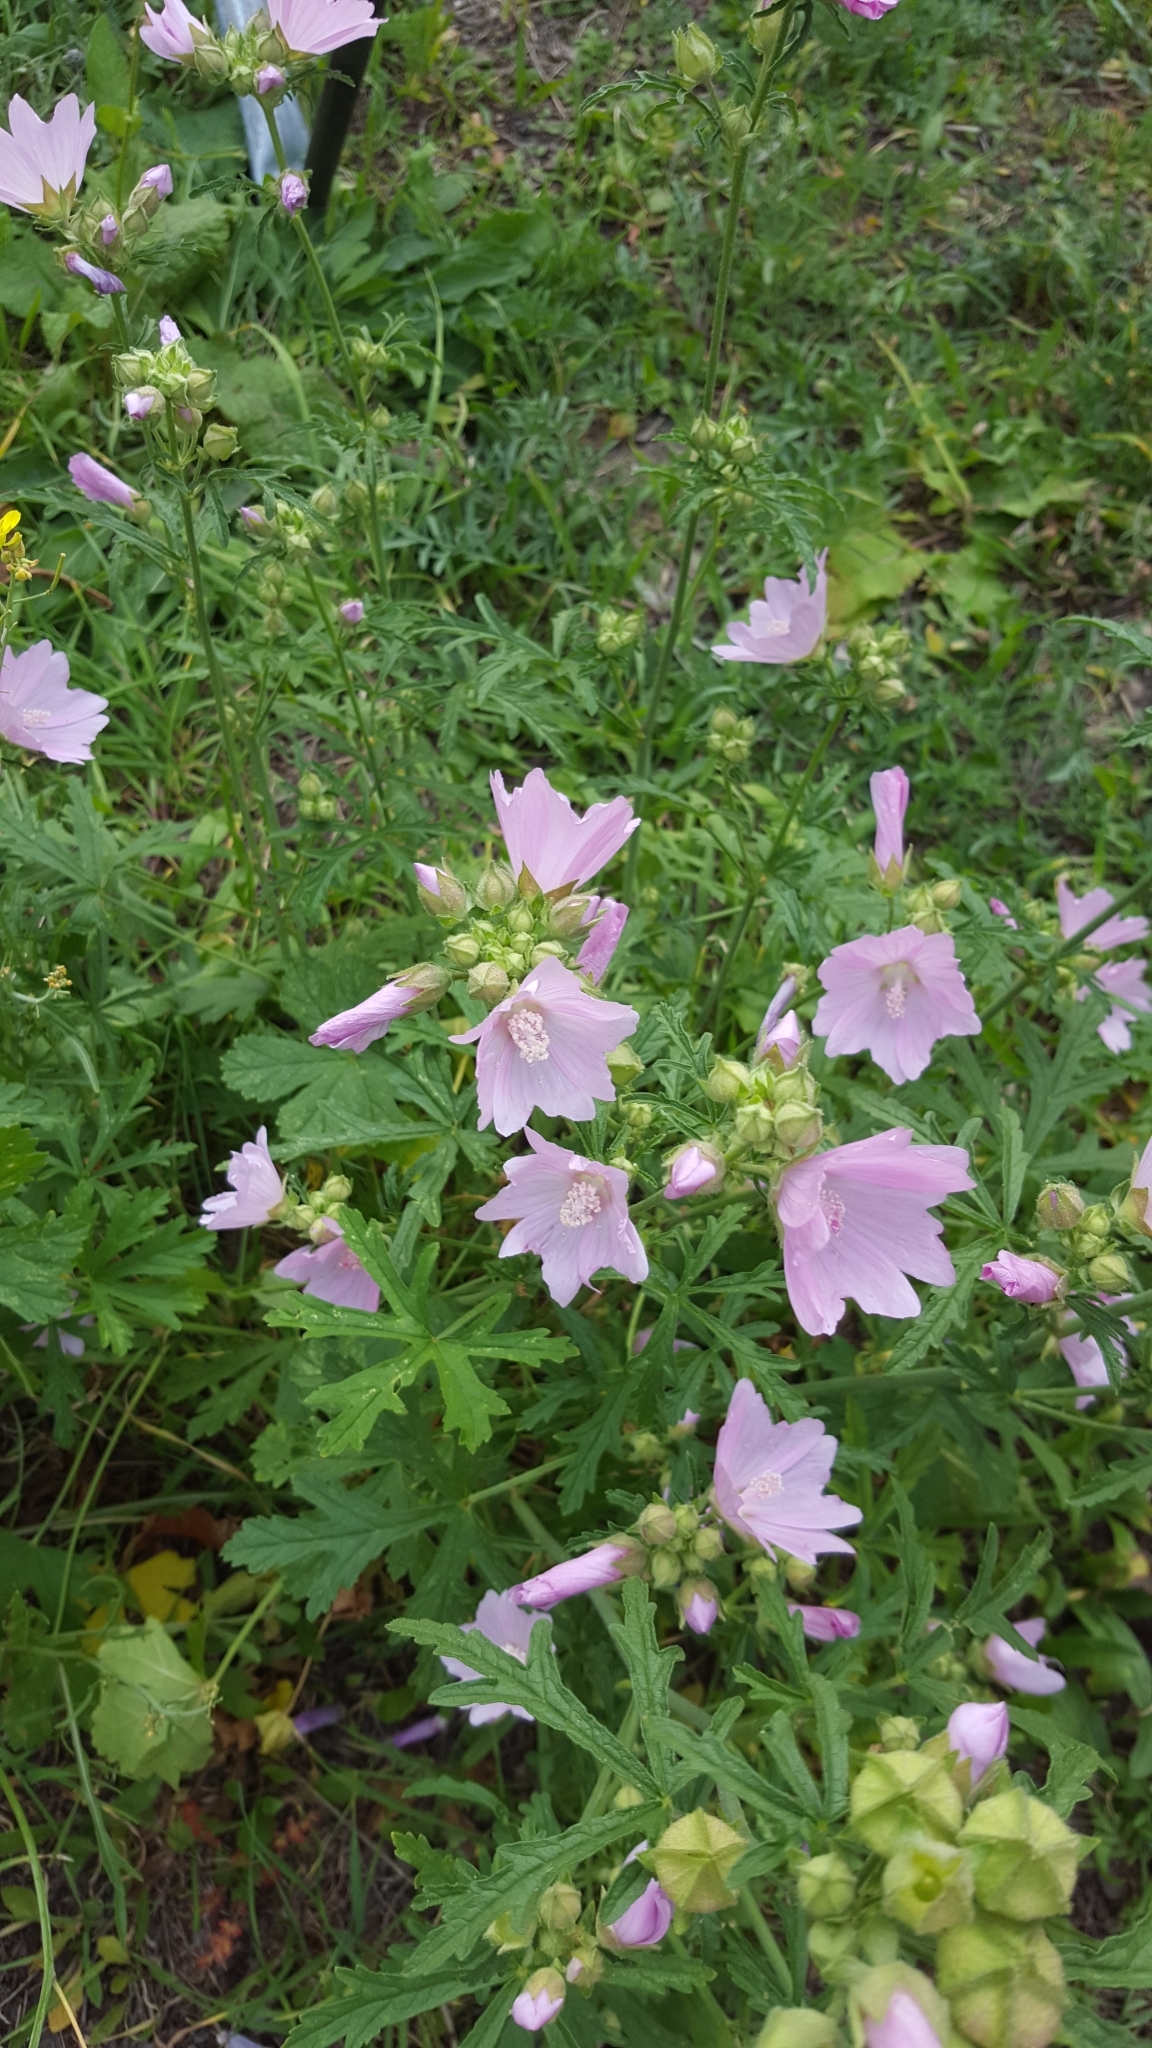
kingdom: Plantae
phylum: Tracheophyta
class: Magnoliopsida
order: Malvales
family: Malvaceae
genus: Malva
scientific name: Malva alcea
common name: Greater musk-mallow
